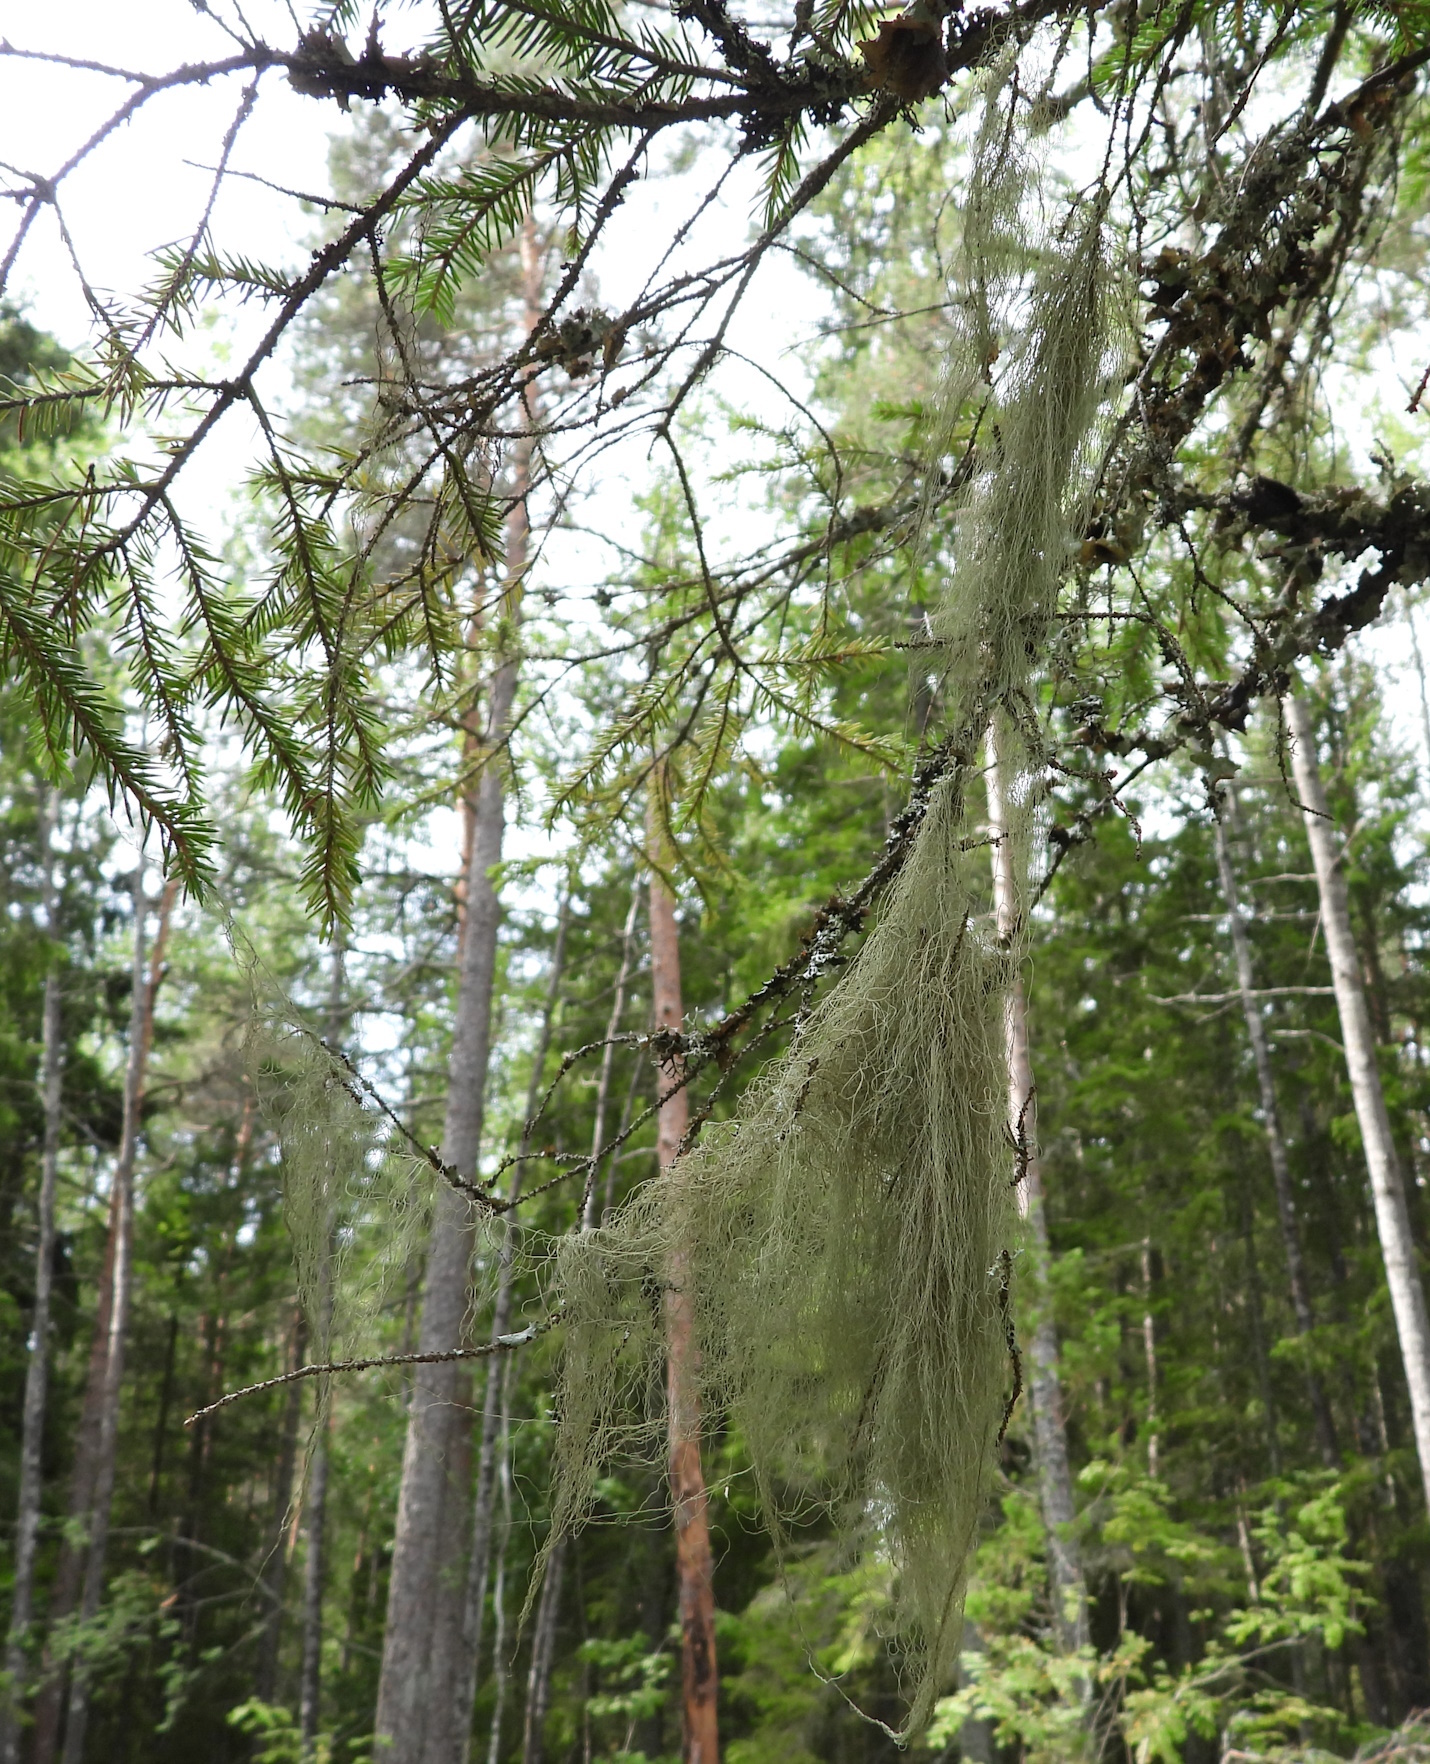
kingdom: Fungi
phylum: Ascomycota
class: Lecanoromycetes
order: Lecanorales
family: Parmeliaceae
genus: Bryoria
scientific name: Bryoria fuscescens
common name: Pale-footed horsehair lichen
